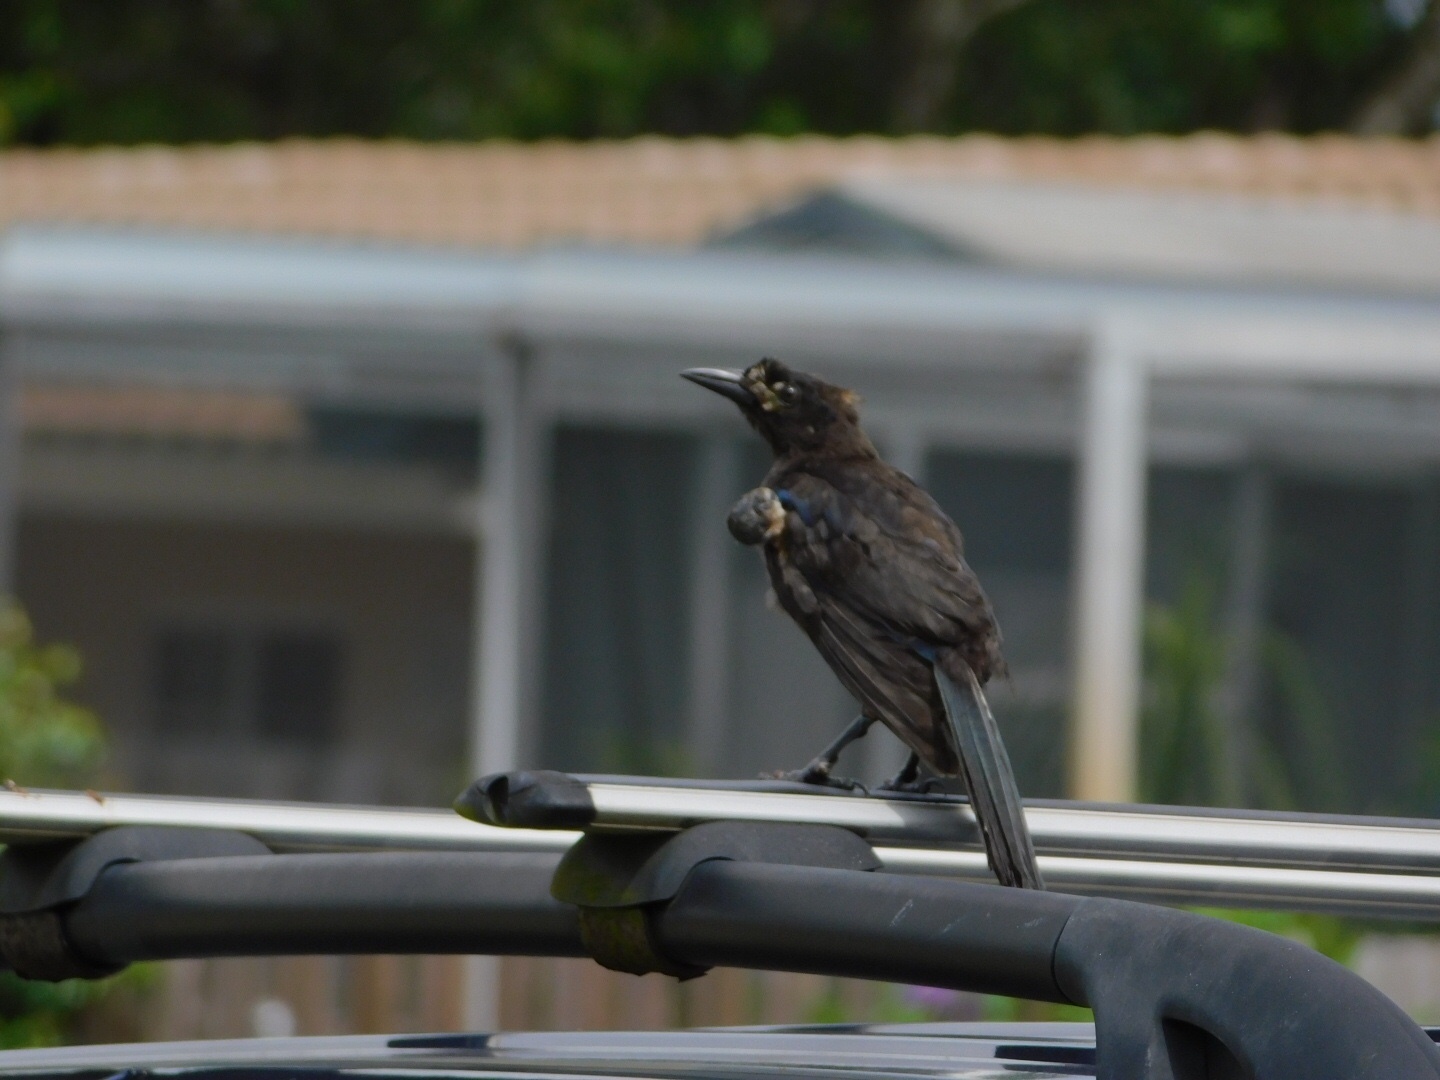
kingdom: Animalia
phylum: Chordata
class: Aves
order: Passeriformes
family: Icteridae
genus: Quiscalus
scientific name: Quiscalus major
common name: Boat-tailed grackle
